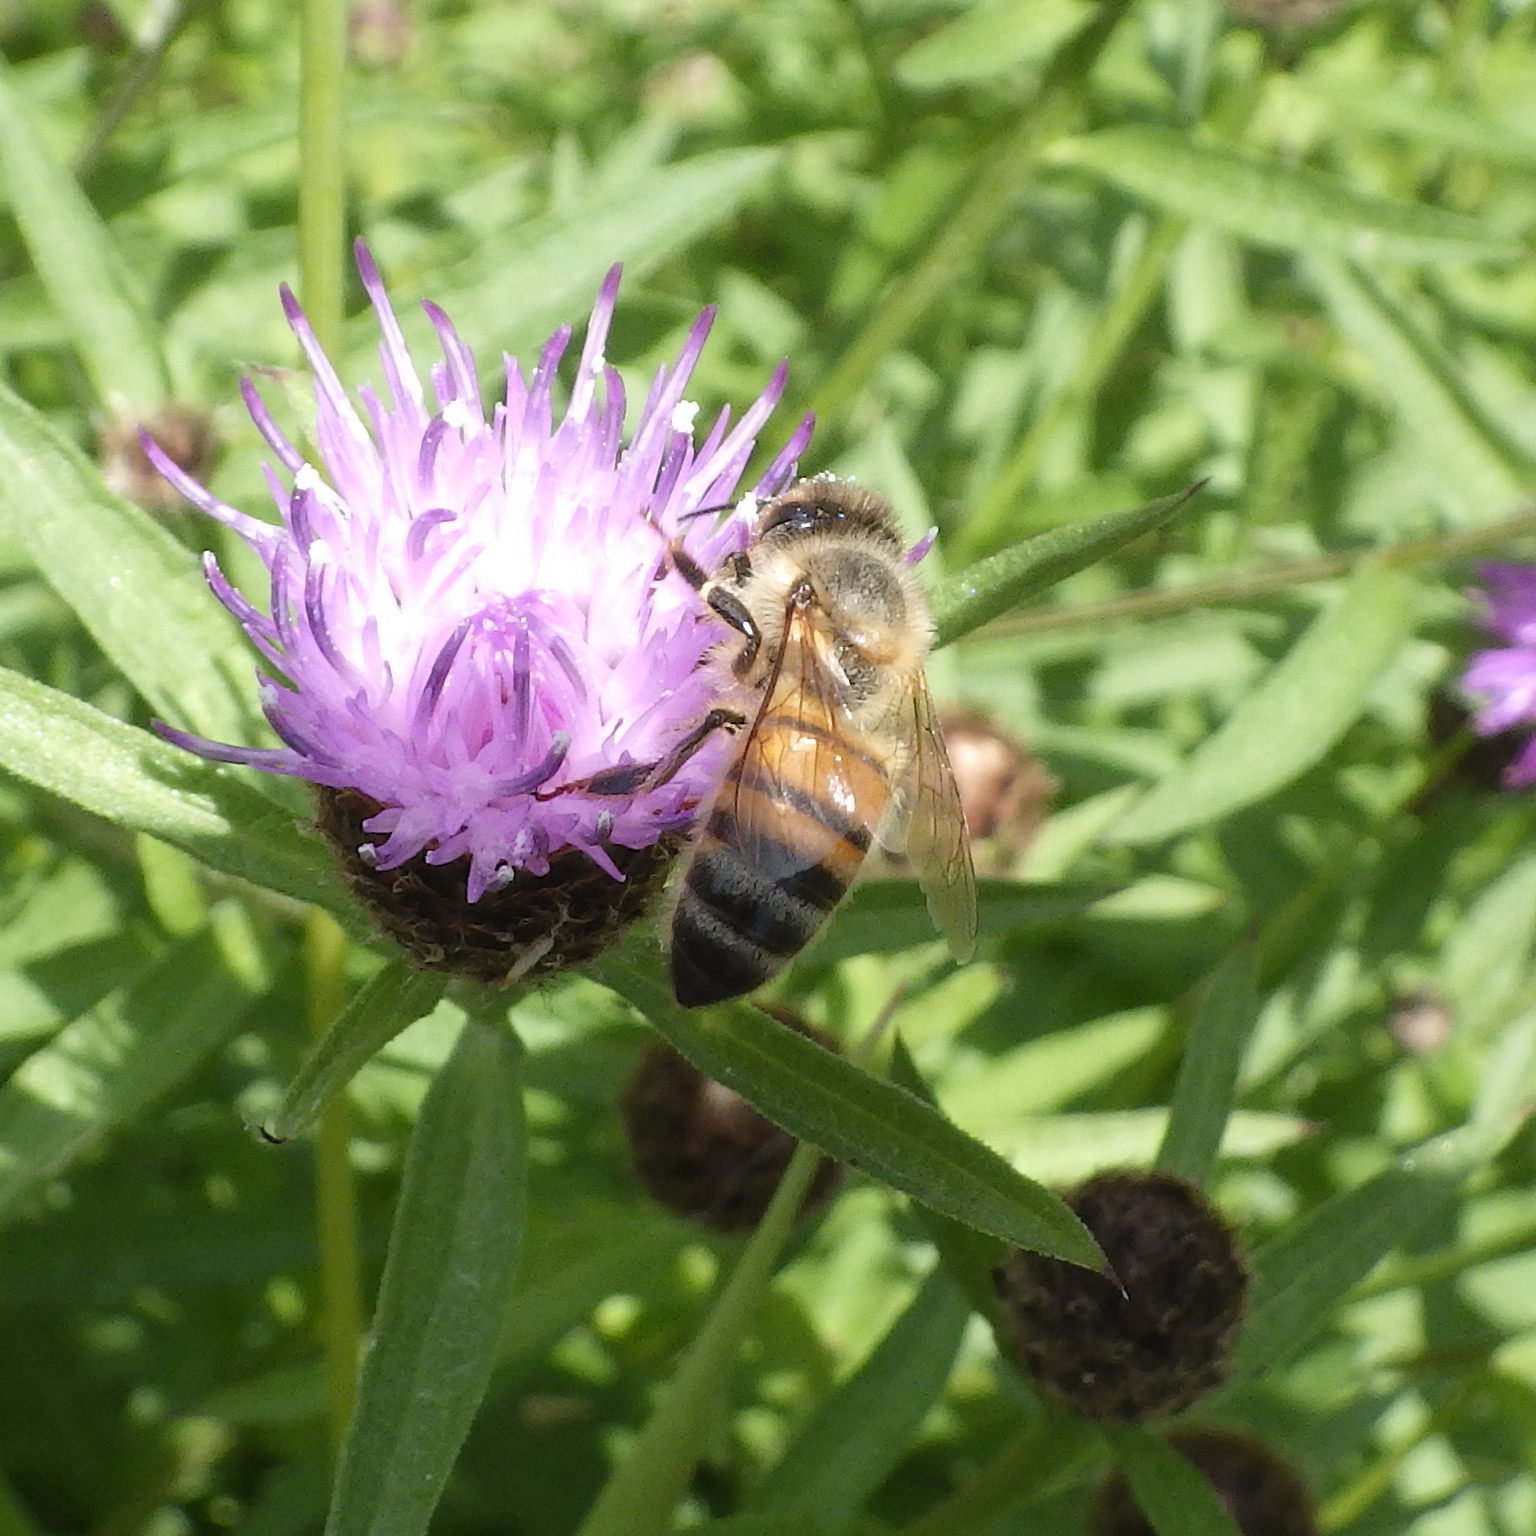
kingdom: Animalia
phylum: Arthropoda
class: Insecta
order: Hymenoptera
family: Apidae
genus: Apis
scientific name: Apis mellifera
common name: Honey bee
